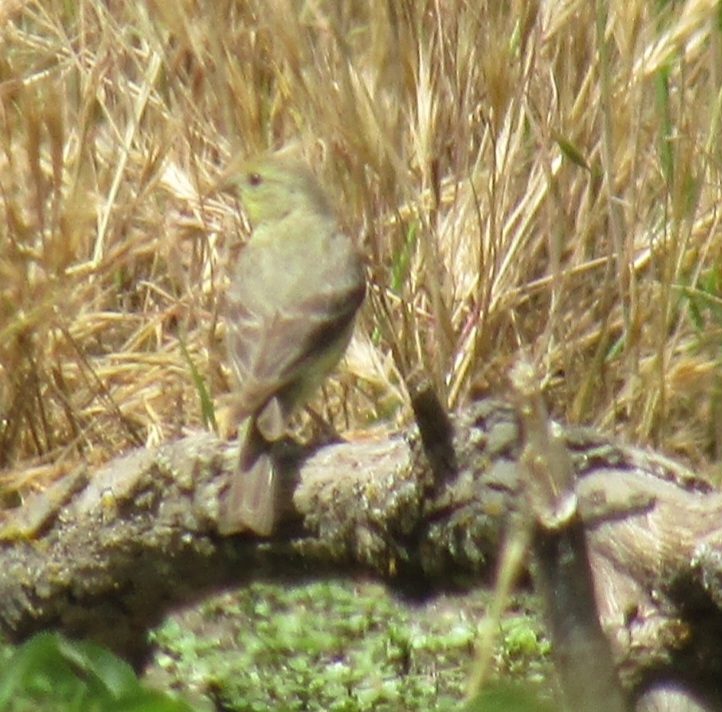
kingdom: Animalia
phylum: Chordata
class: Aves
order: Passeriformes
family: Fringillidae
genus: Spinus
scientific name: Spinus psaltria
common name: Lesser goldfinch
